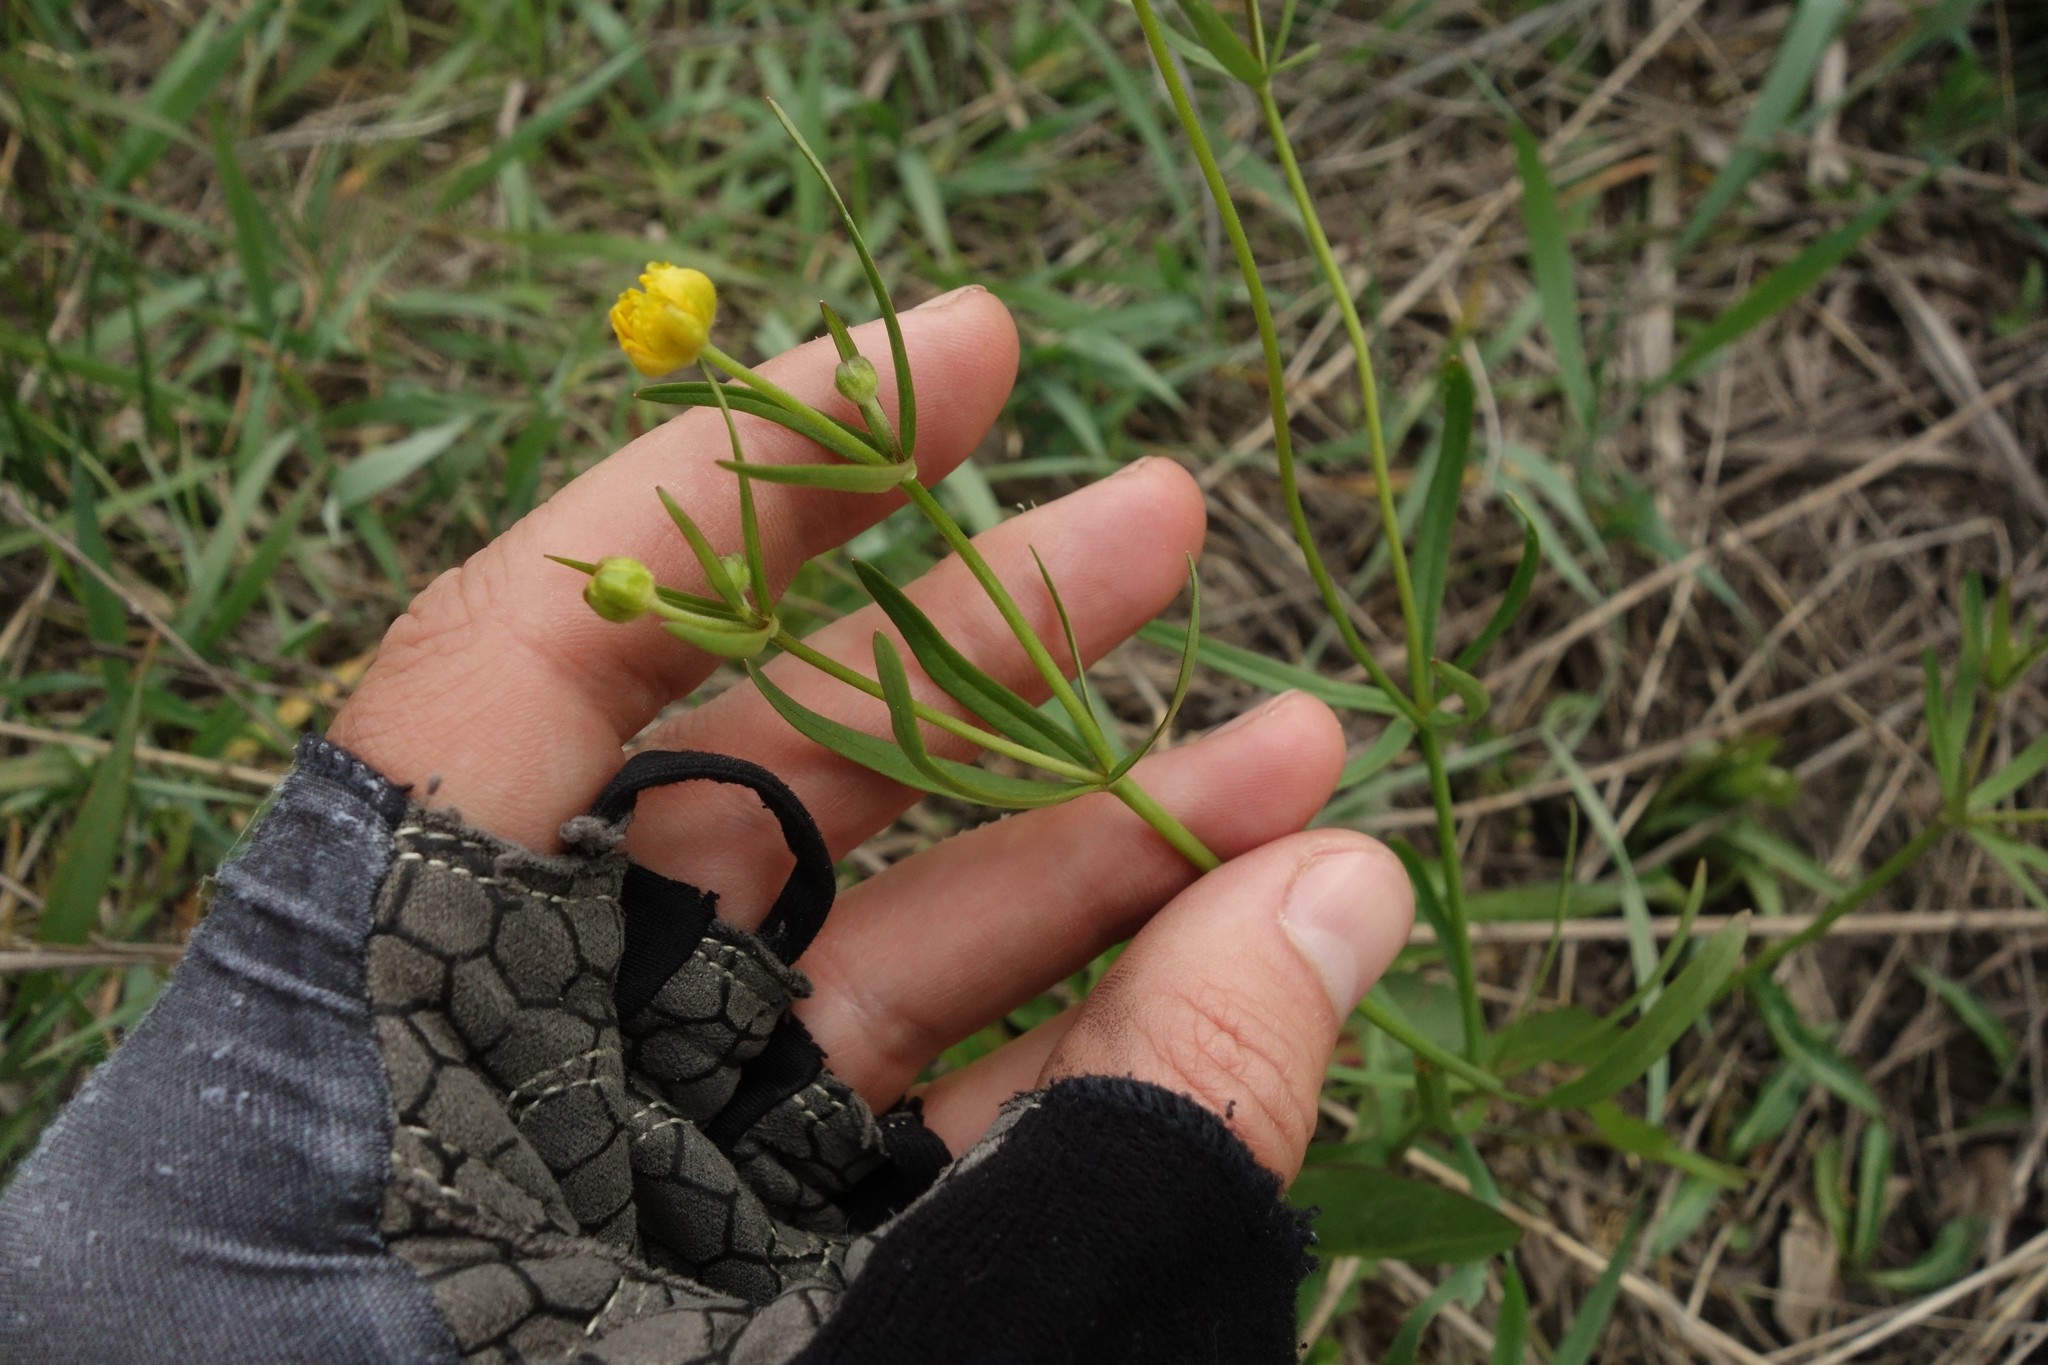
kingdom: Plantae
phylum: Tracheophyta
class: Magnoliopsida
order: Ranunculales
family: Ranunculaceae
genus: Ranunculus
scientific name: Ranunculus auricomus
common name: Goldilocks buttercup
